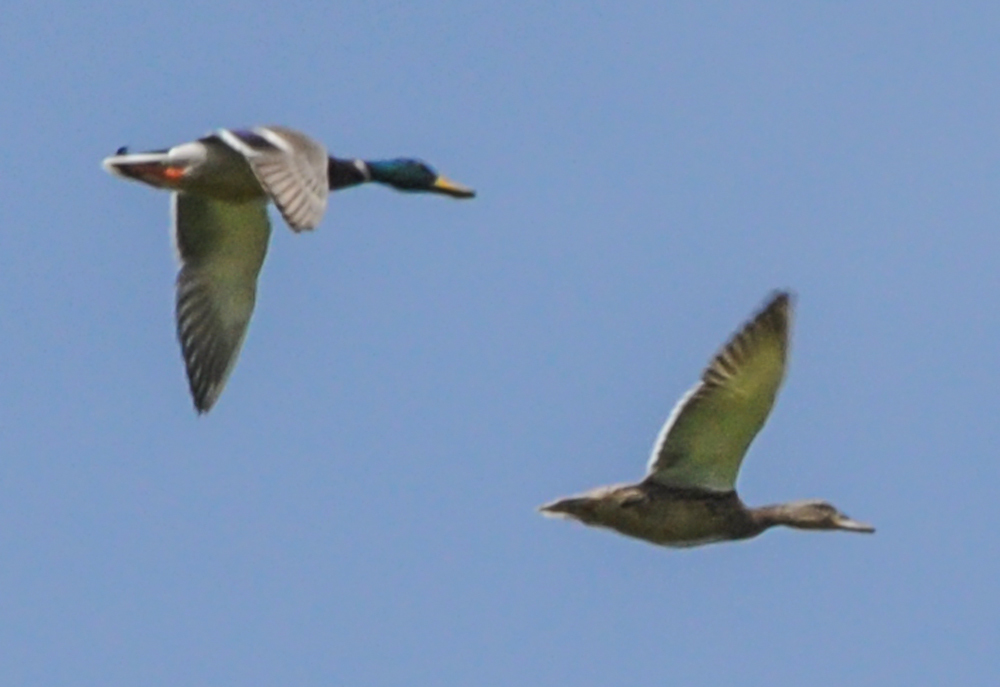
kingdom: Animalia
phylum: Chordata
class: Aves
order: Anseriformes
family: Anatidae
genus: Anas
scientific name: Anas platyrhynchos
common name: Mallard
